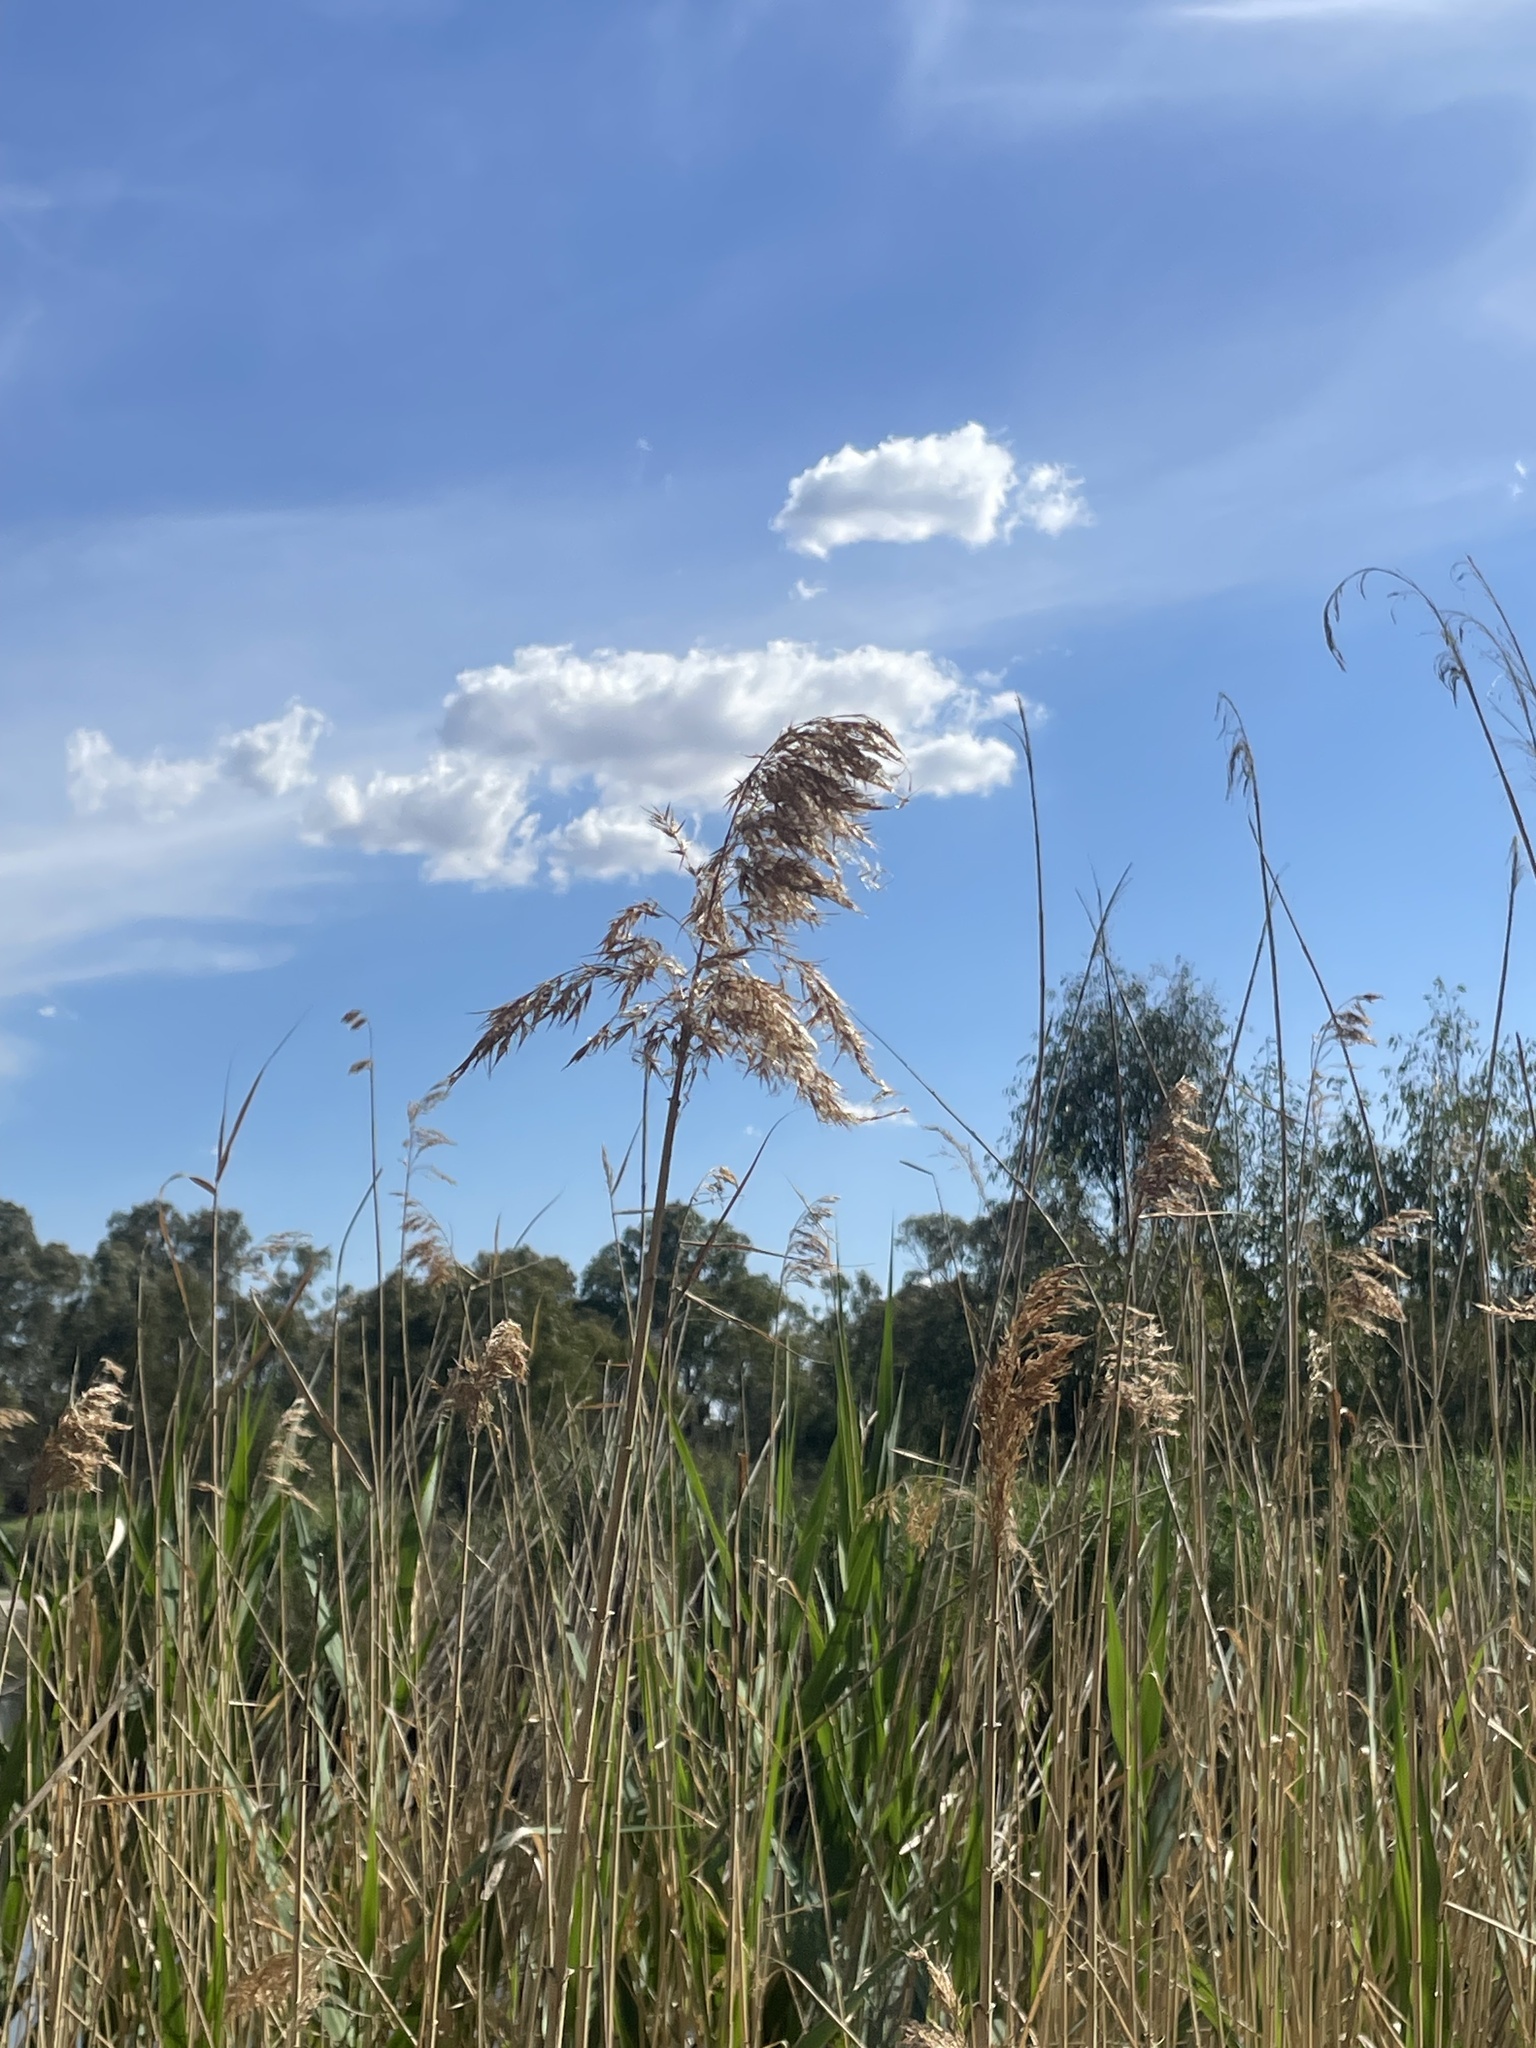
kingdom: Plantae
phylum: Tracheophyta
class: Liliopsida
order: Poales
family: Poaceae
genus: Phragmites
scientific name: Phragmites australis
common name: Common reed
